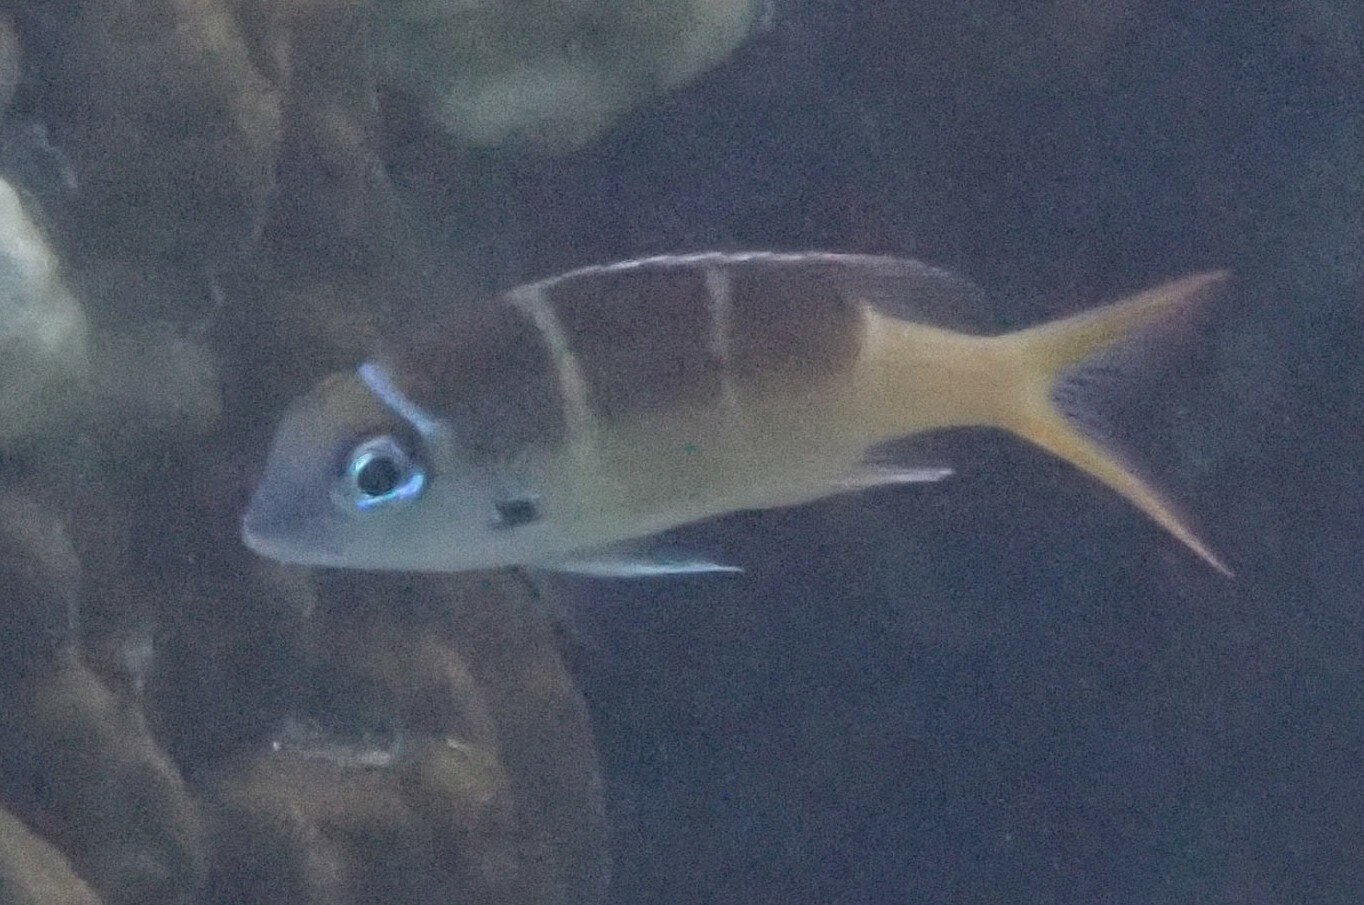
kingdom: Animalia
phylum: Chordata
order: Perciformes
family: Lethrinidae
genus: Monotaxis
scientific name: Monotaxis heterodon
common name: Redfin emperor
